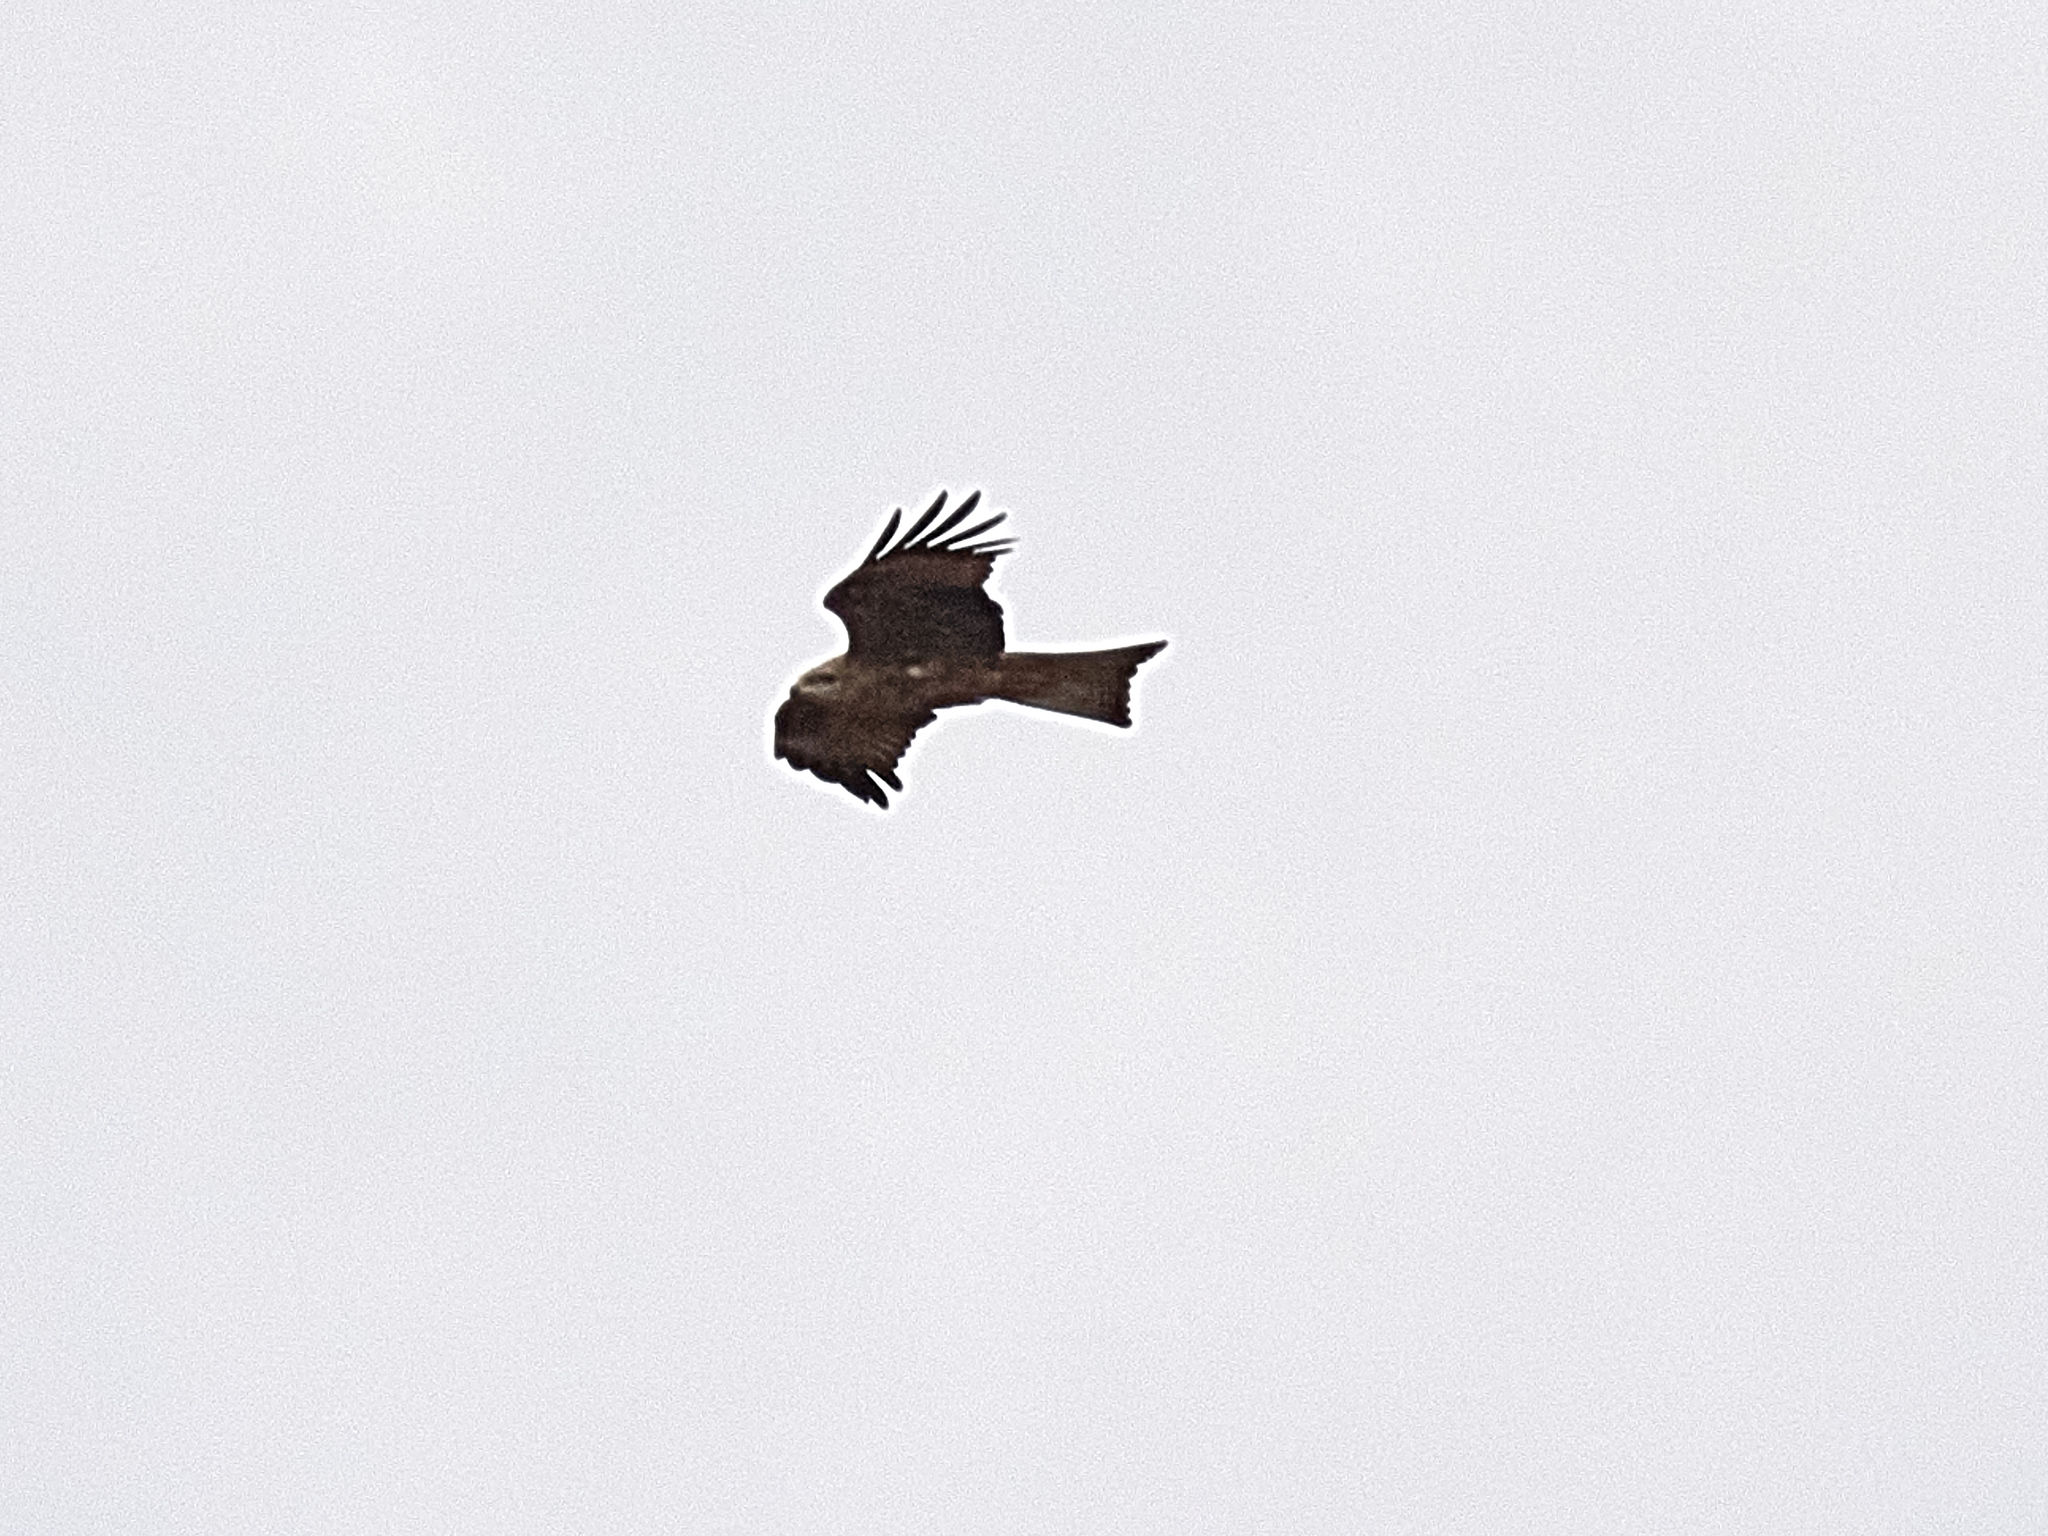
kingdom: Animalia
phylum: Chordata
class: Aves
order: Accipitriformes
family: Accipitridae
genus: Milvus
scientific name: Milvus migrans
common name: Black kite
